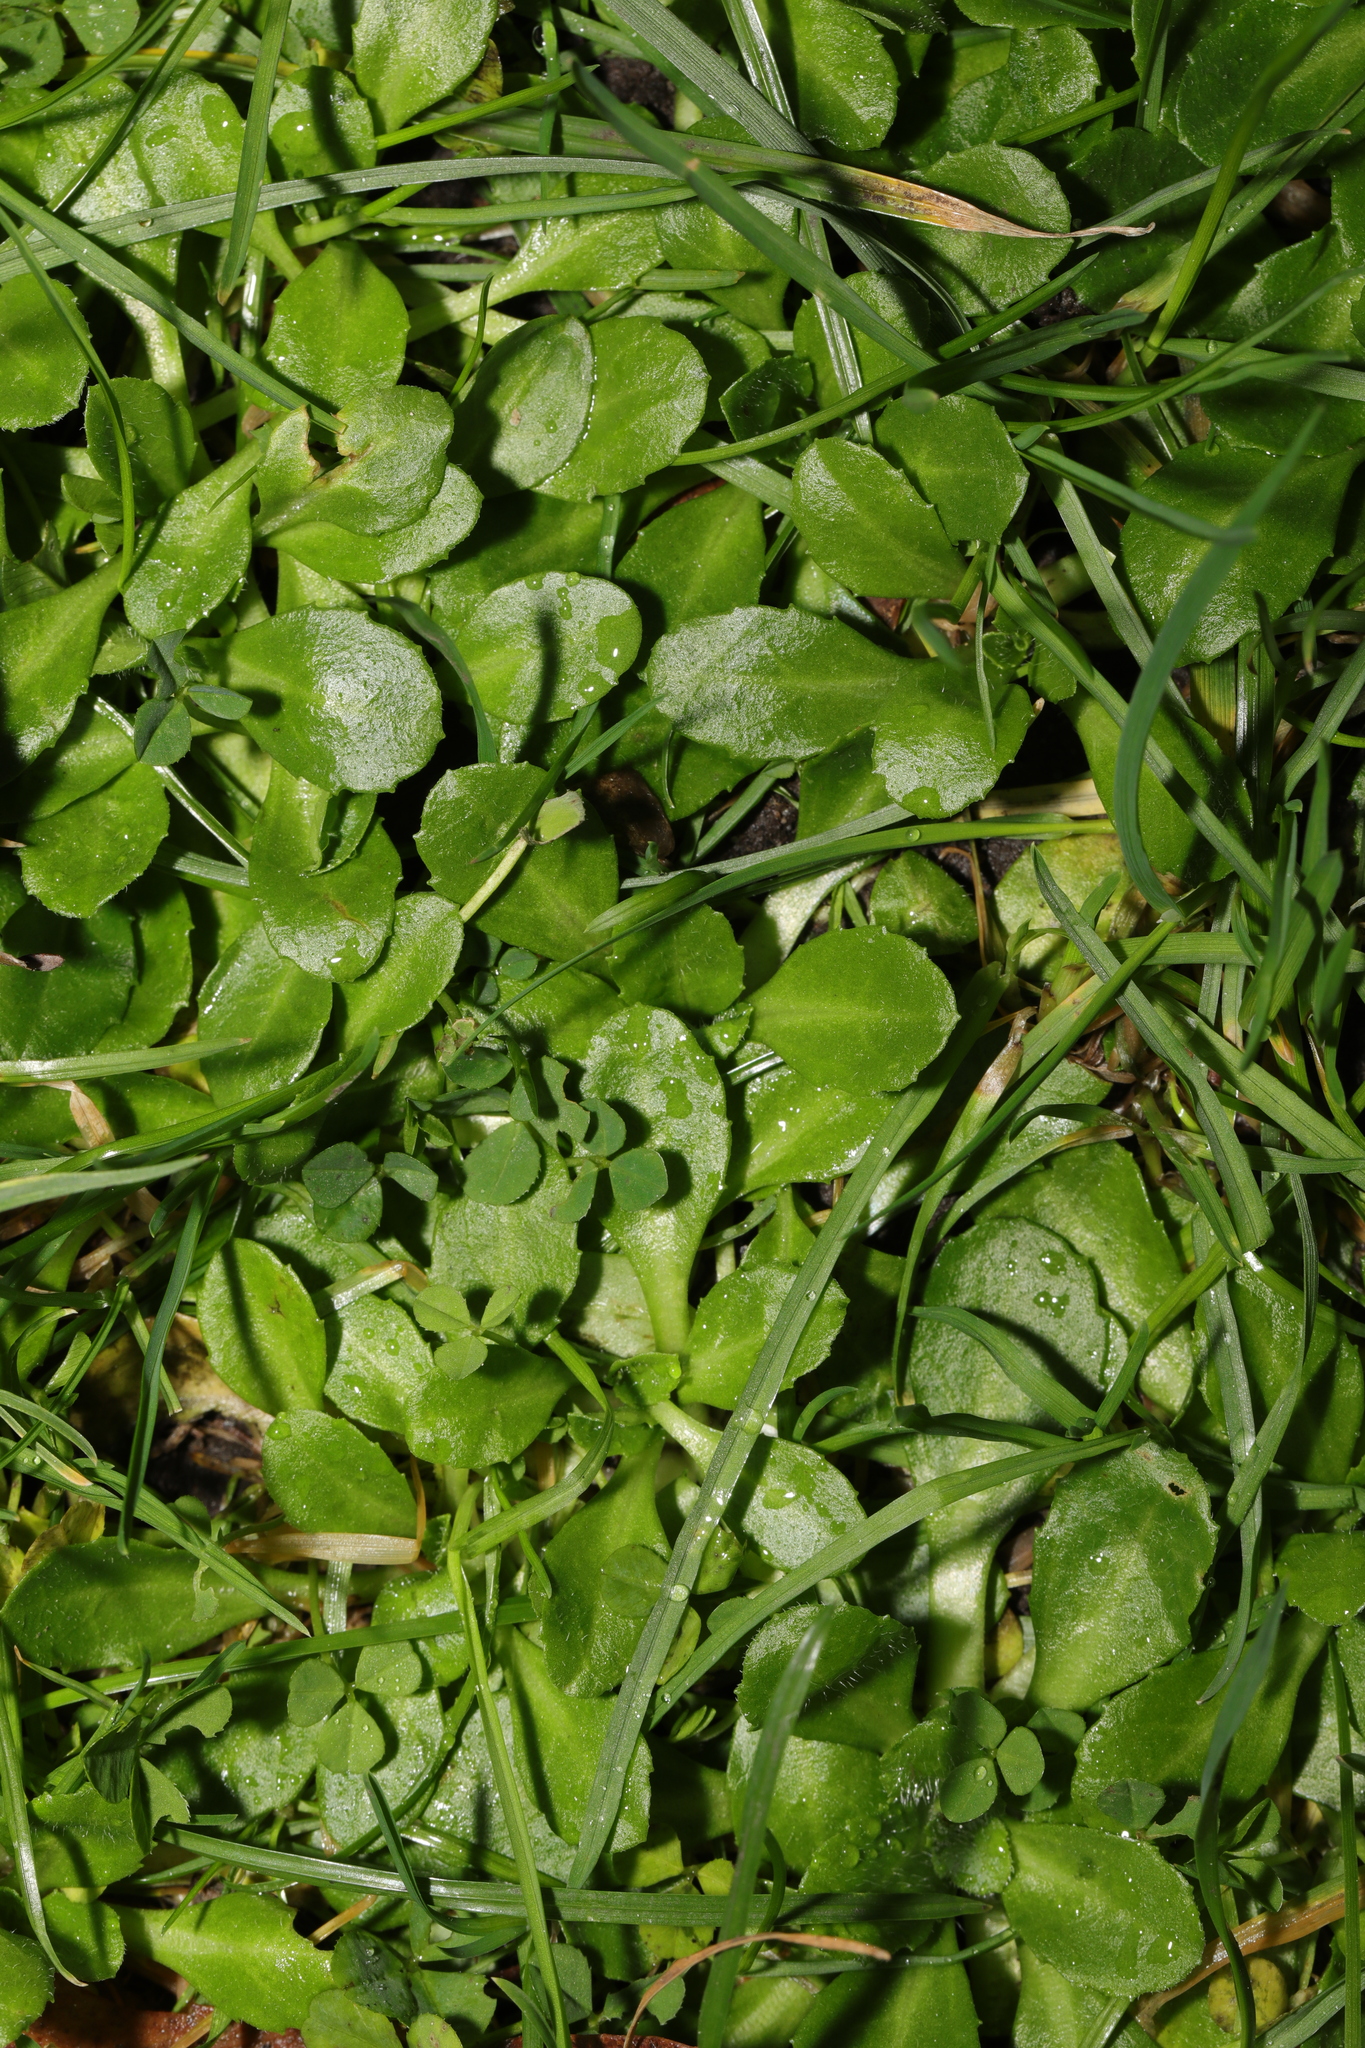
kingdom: Plantae
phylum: Tracheophyta
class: Magnoliopsida
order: Asterales
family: Asteraceae
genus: Bellis
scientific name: Bellis perennis
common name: Lawndaisy
